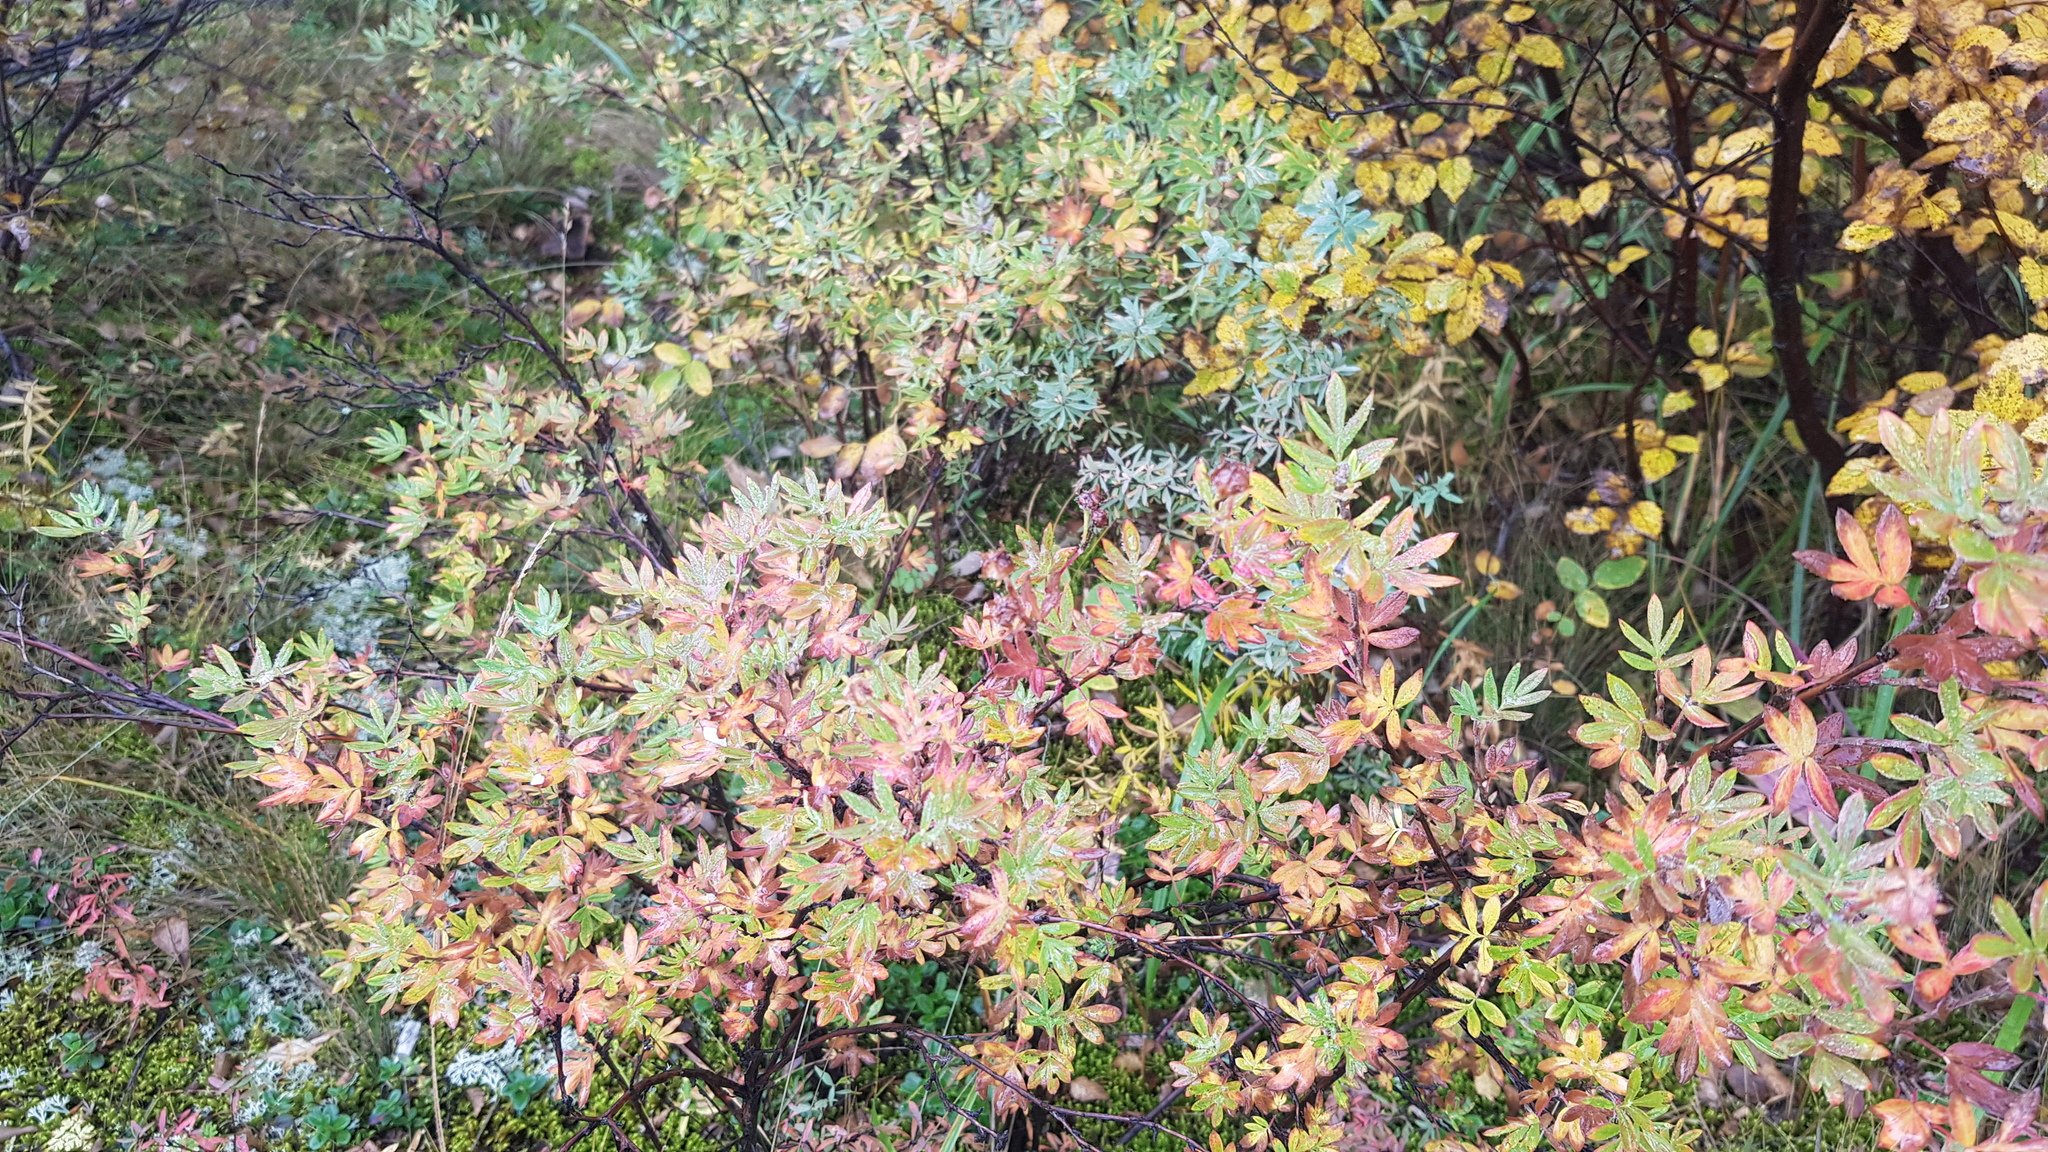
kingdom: Plantae
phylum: Tracheophyta
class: Magnoliopsida
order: Rosales
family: Rosaceae
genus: Dasiphora
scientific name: Dasiphora fruticosa
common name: Shrubby cinquefoil
